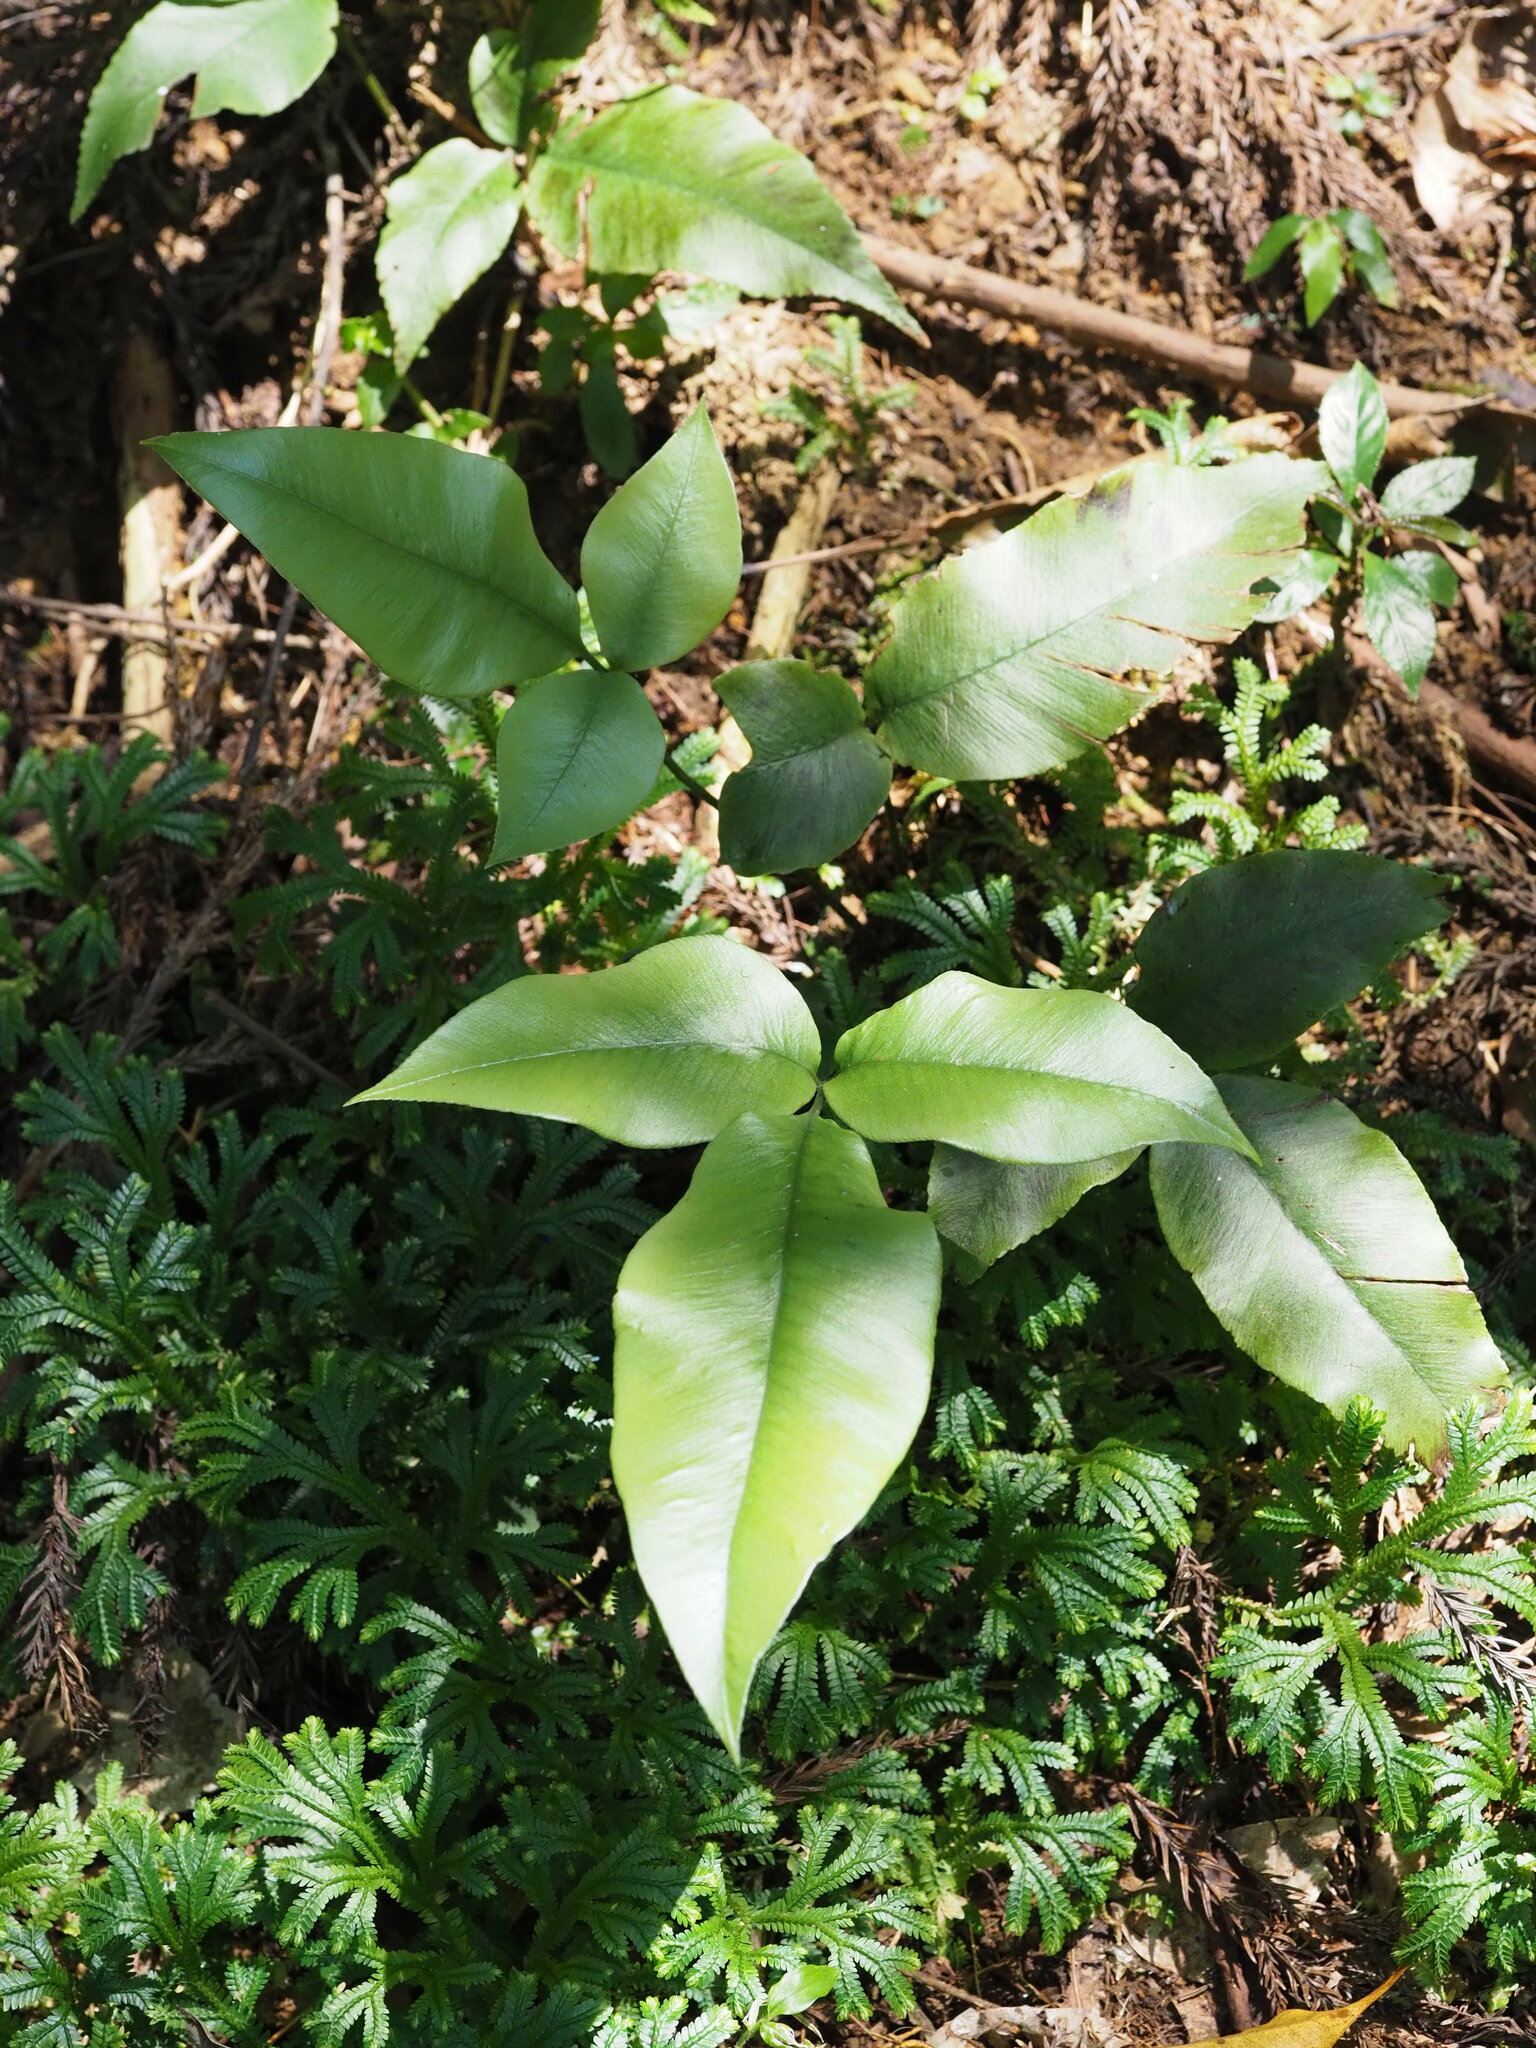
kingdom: Plantae
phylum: Tracheophyta
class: Polypodiopsida
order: Polypodiales
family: Athyriaceae
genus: Diplazium
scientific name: Diplazium lineolatum
